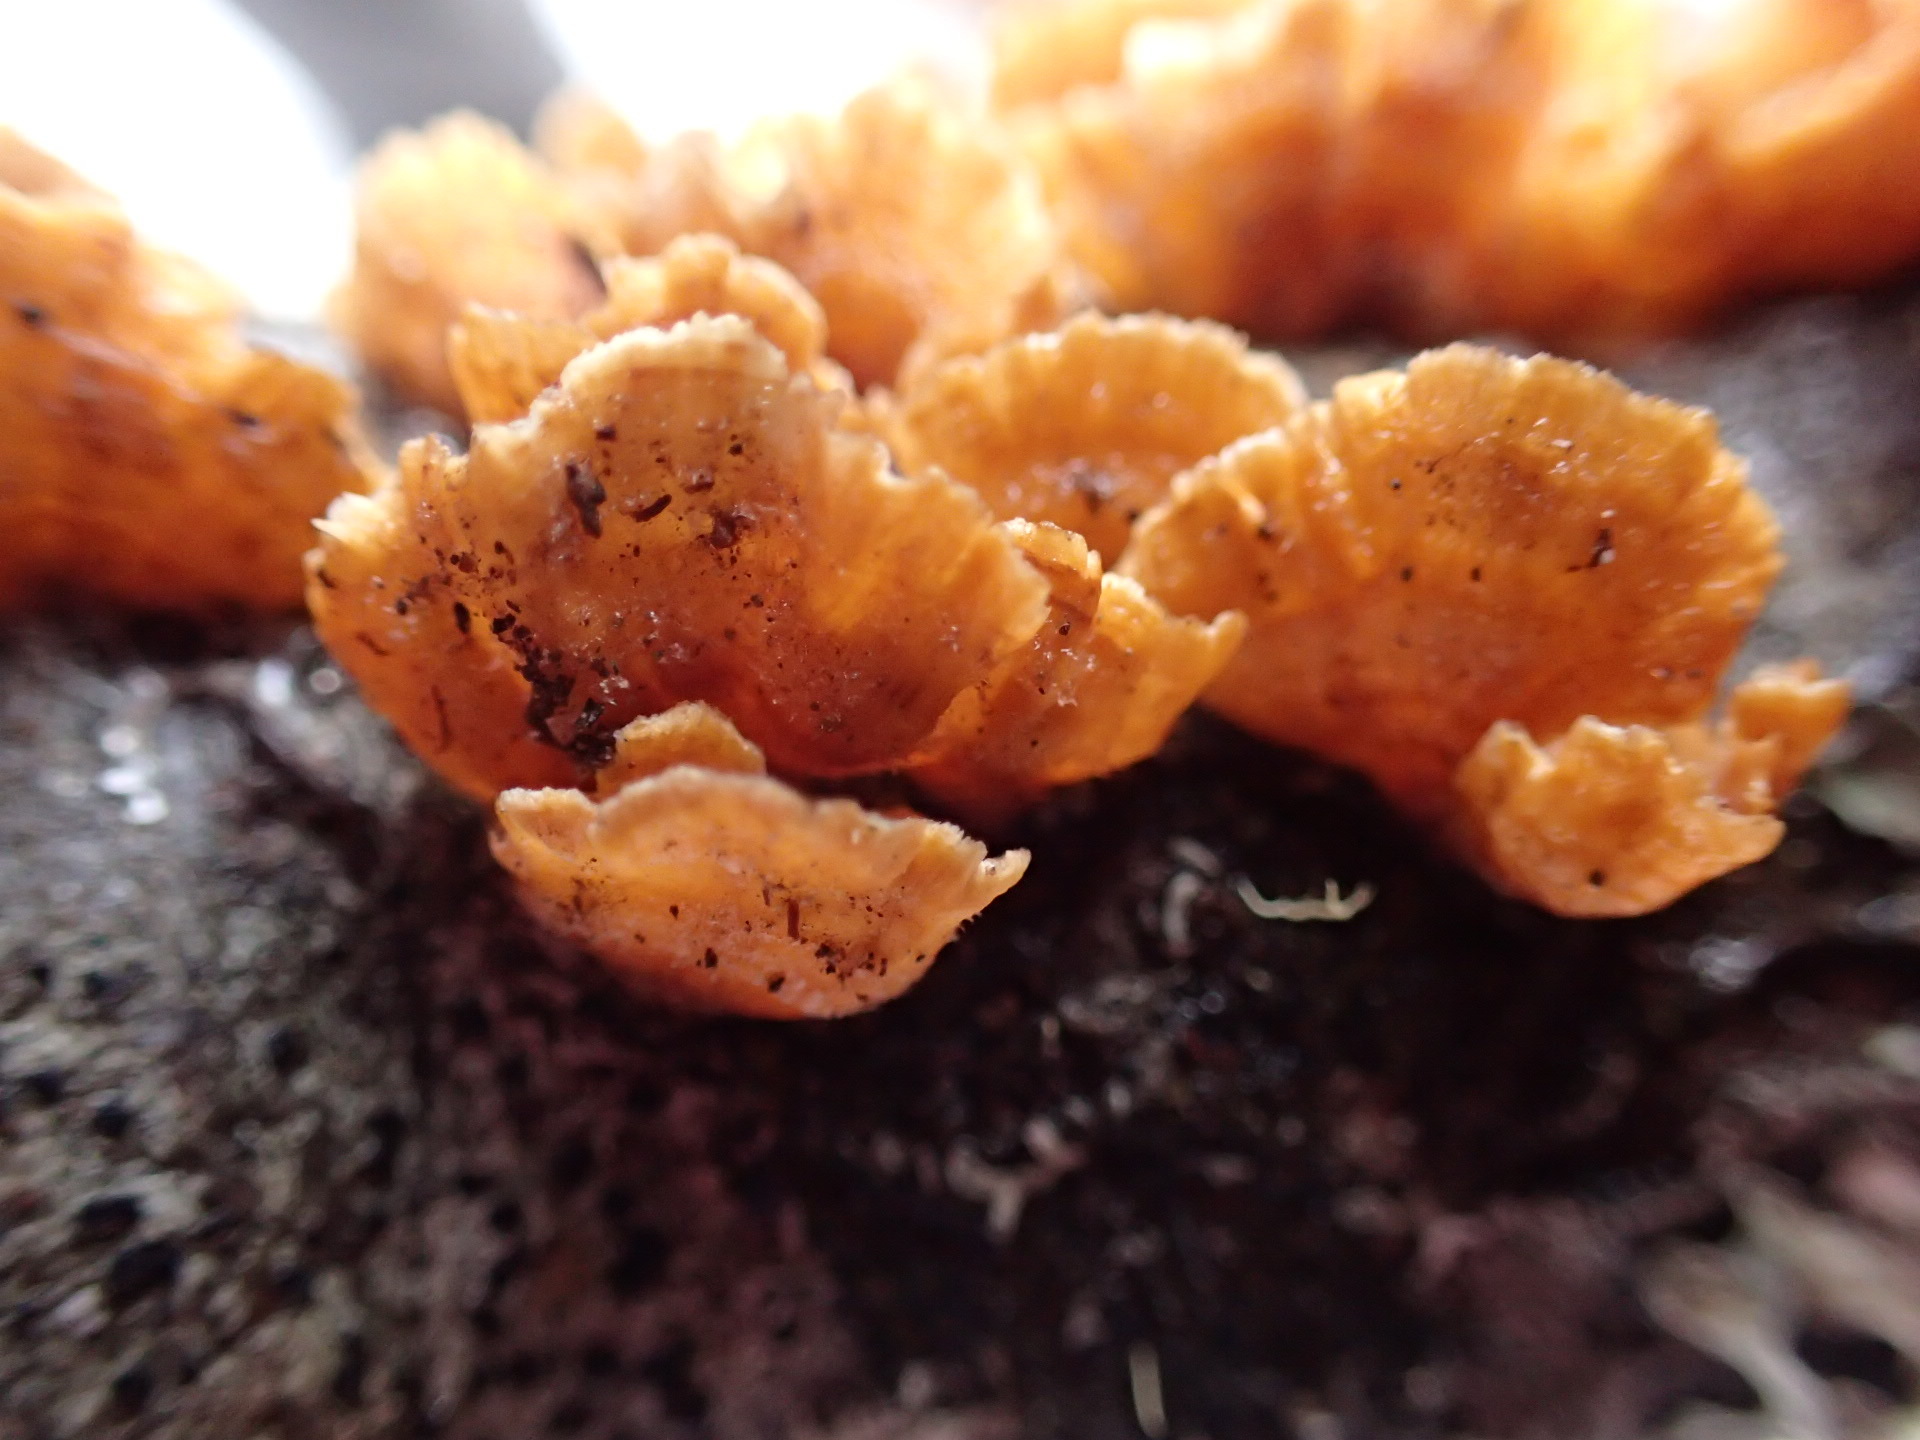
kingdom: Fungi
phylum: Basidiomycota
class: Agaricomycetes
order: Russulales
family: Stereaceae
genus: Stereum
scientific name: Stereum complicatum
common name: Crowded parchment
